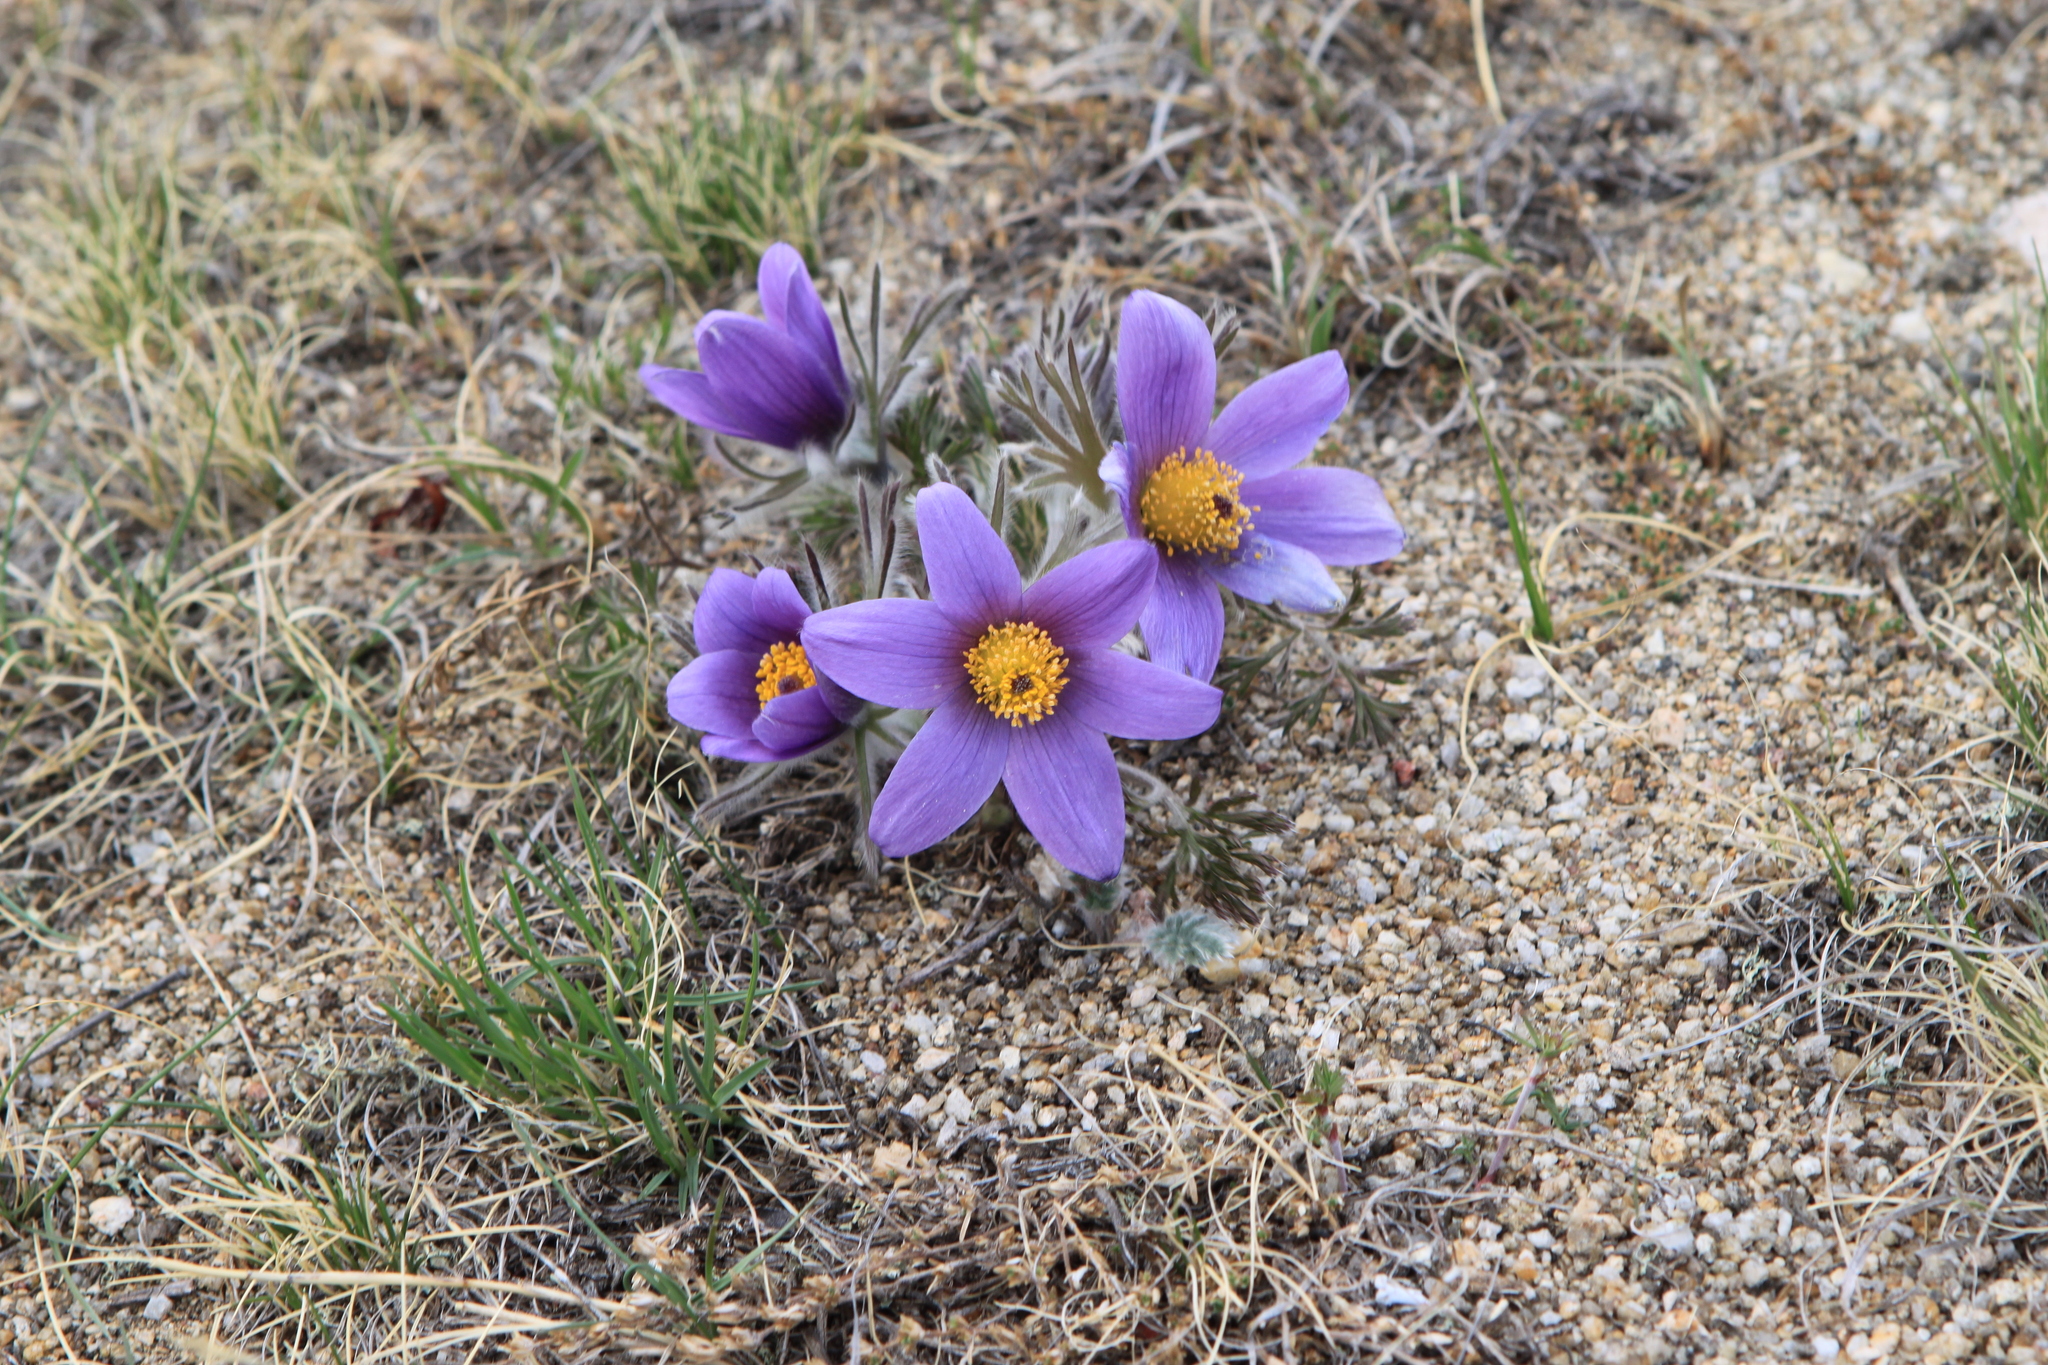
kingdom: Plantae
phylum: Tracheophyta
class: Magnoliopsida
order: Ranunculales
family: Ranunculaceae
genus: Pulsatilla
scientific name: Pulsatilla turczaninovii
